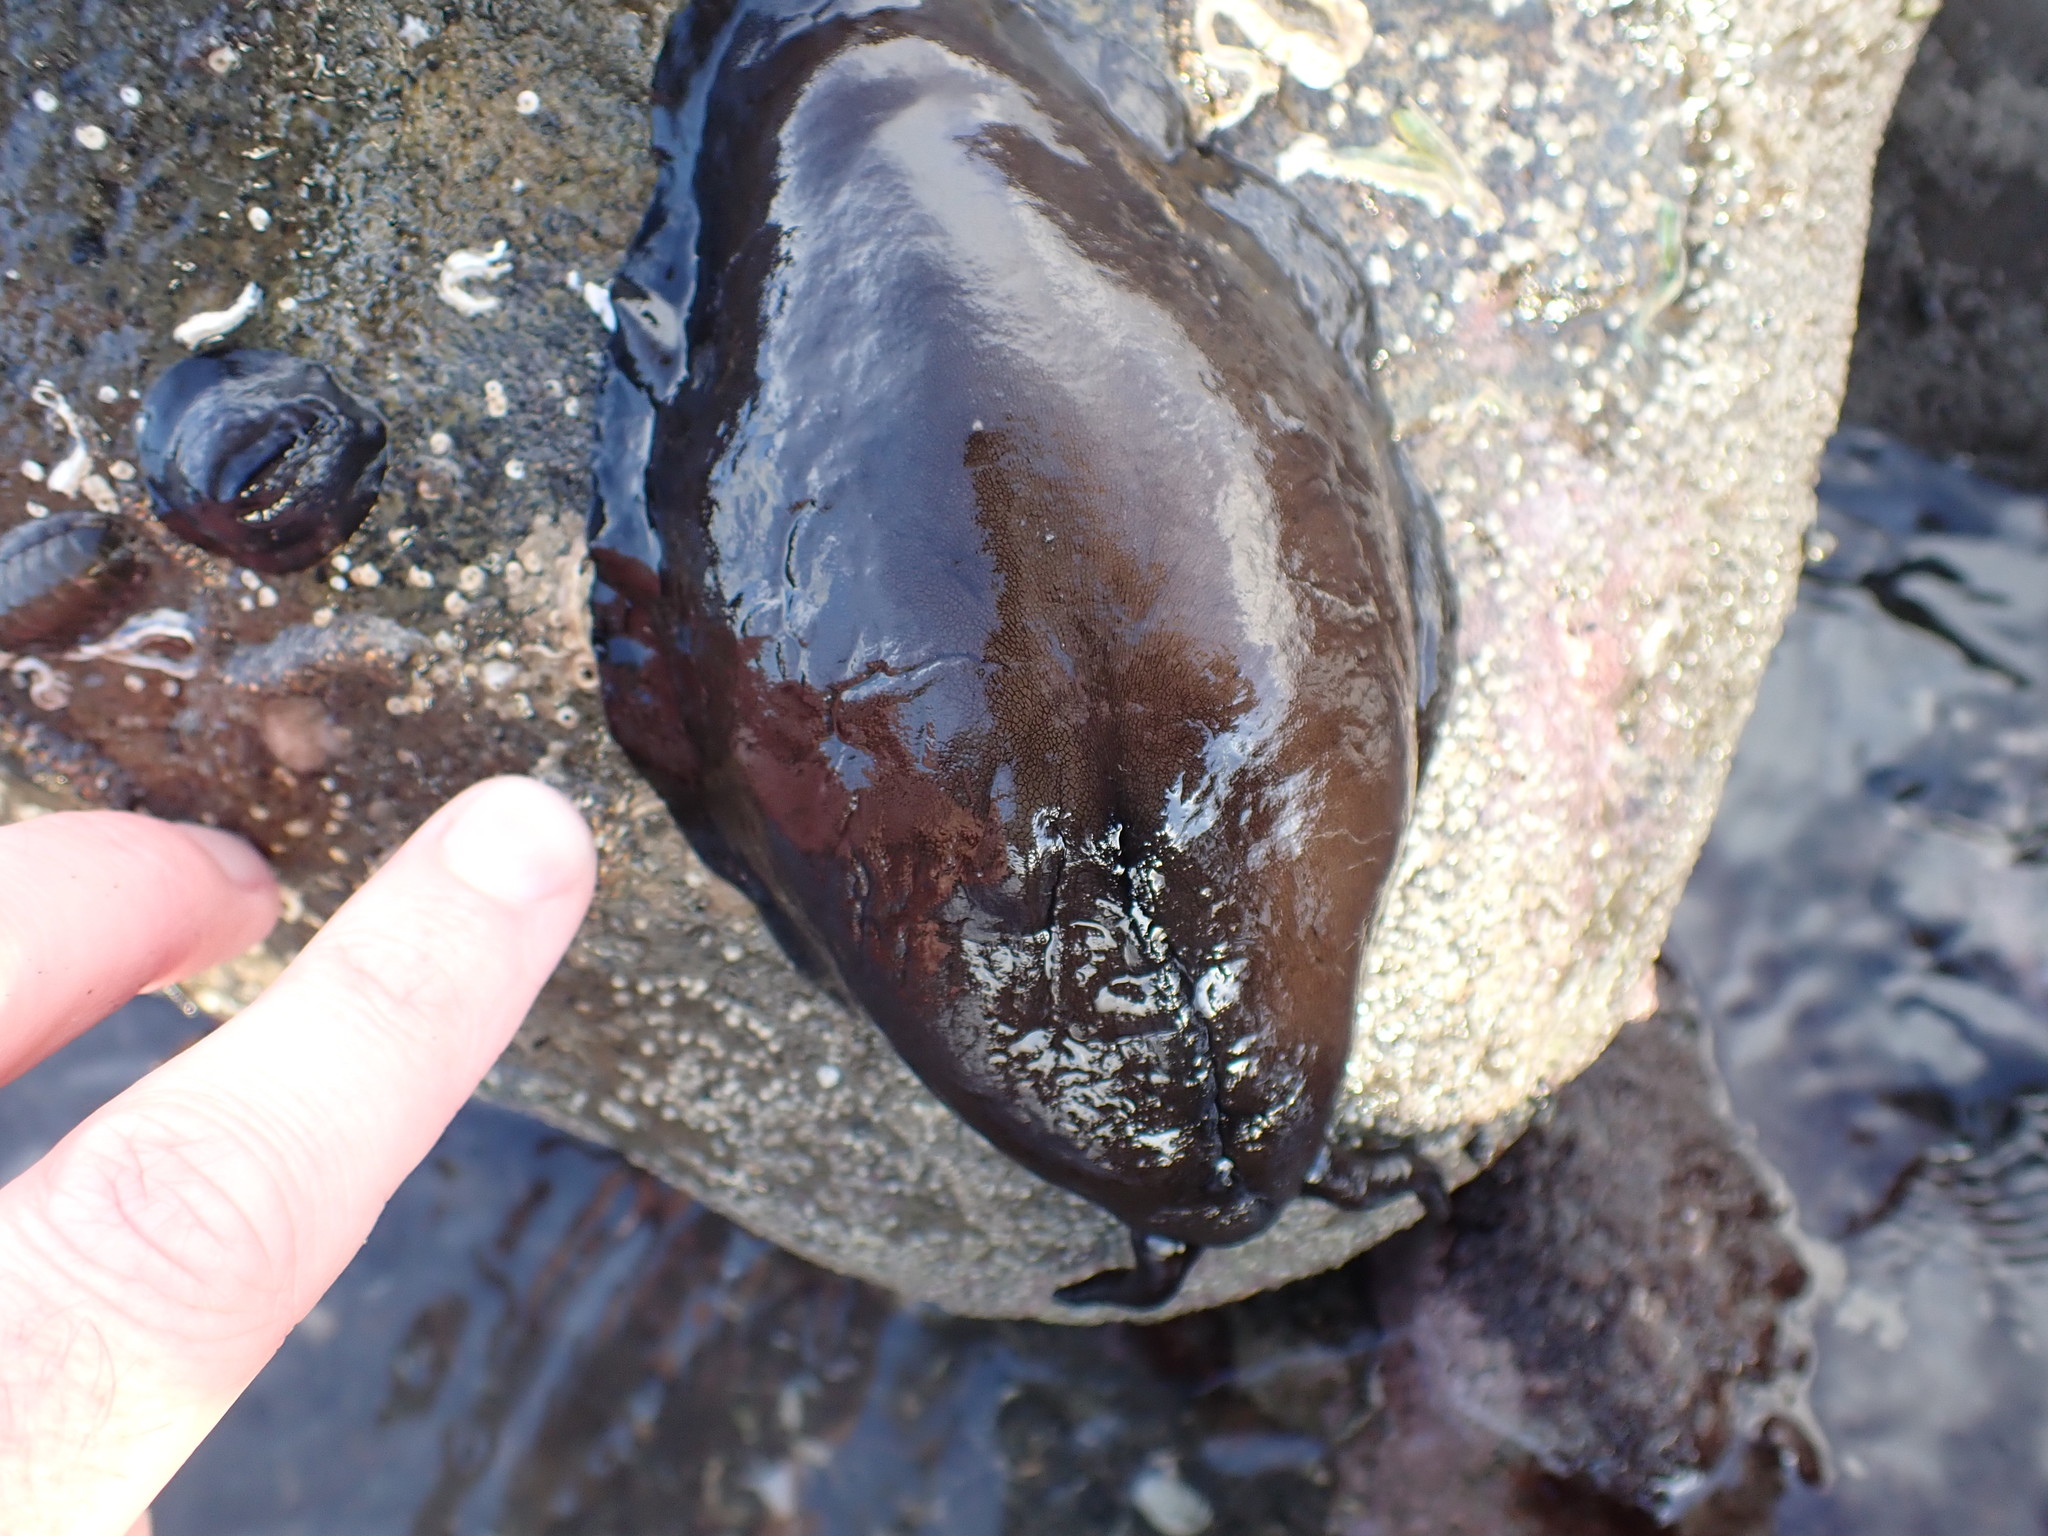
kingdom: Animalia
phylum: Mollusca
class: Gastropoda
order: Lepetellida
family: Fissurellidae
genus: Scutus
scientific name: Scutus breviculus
